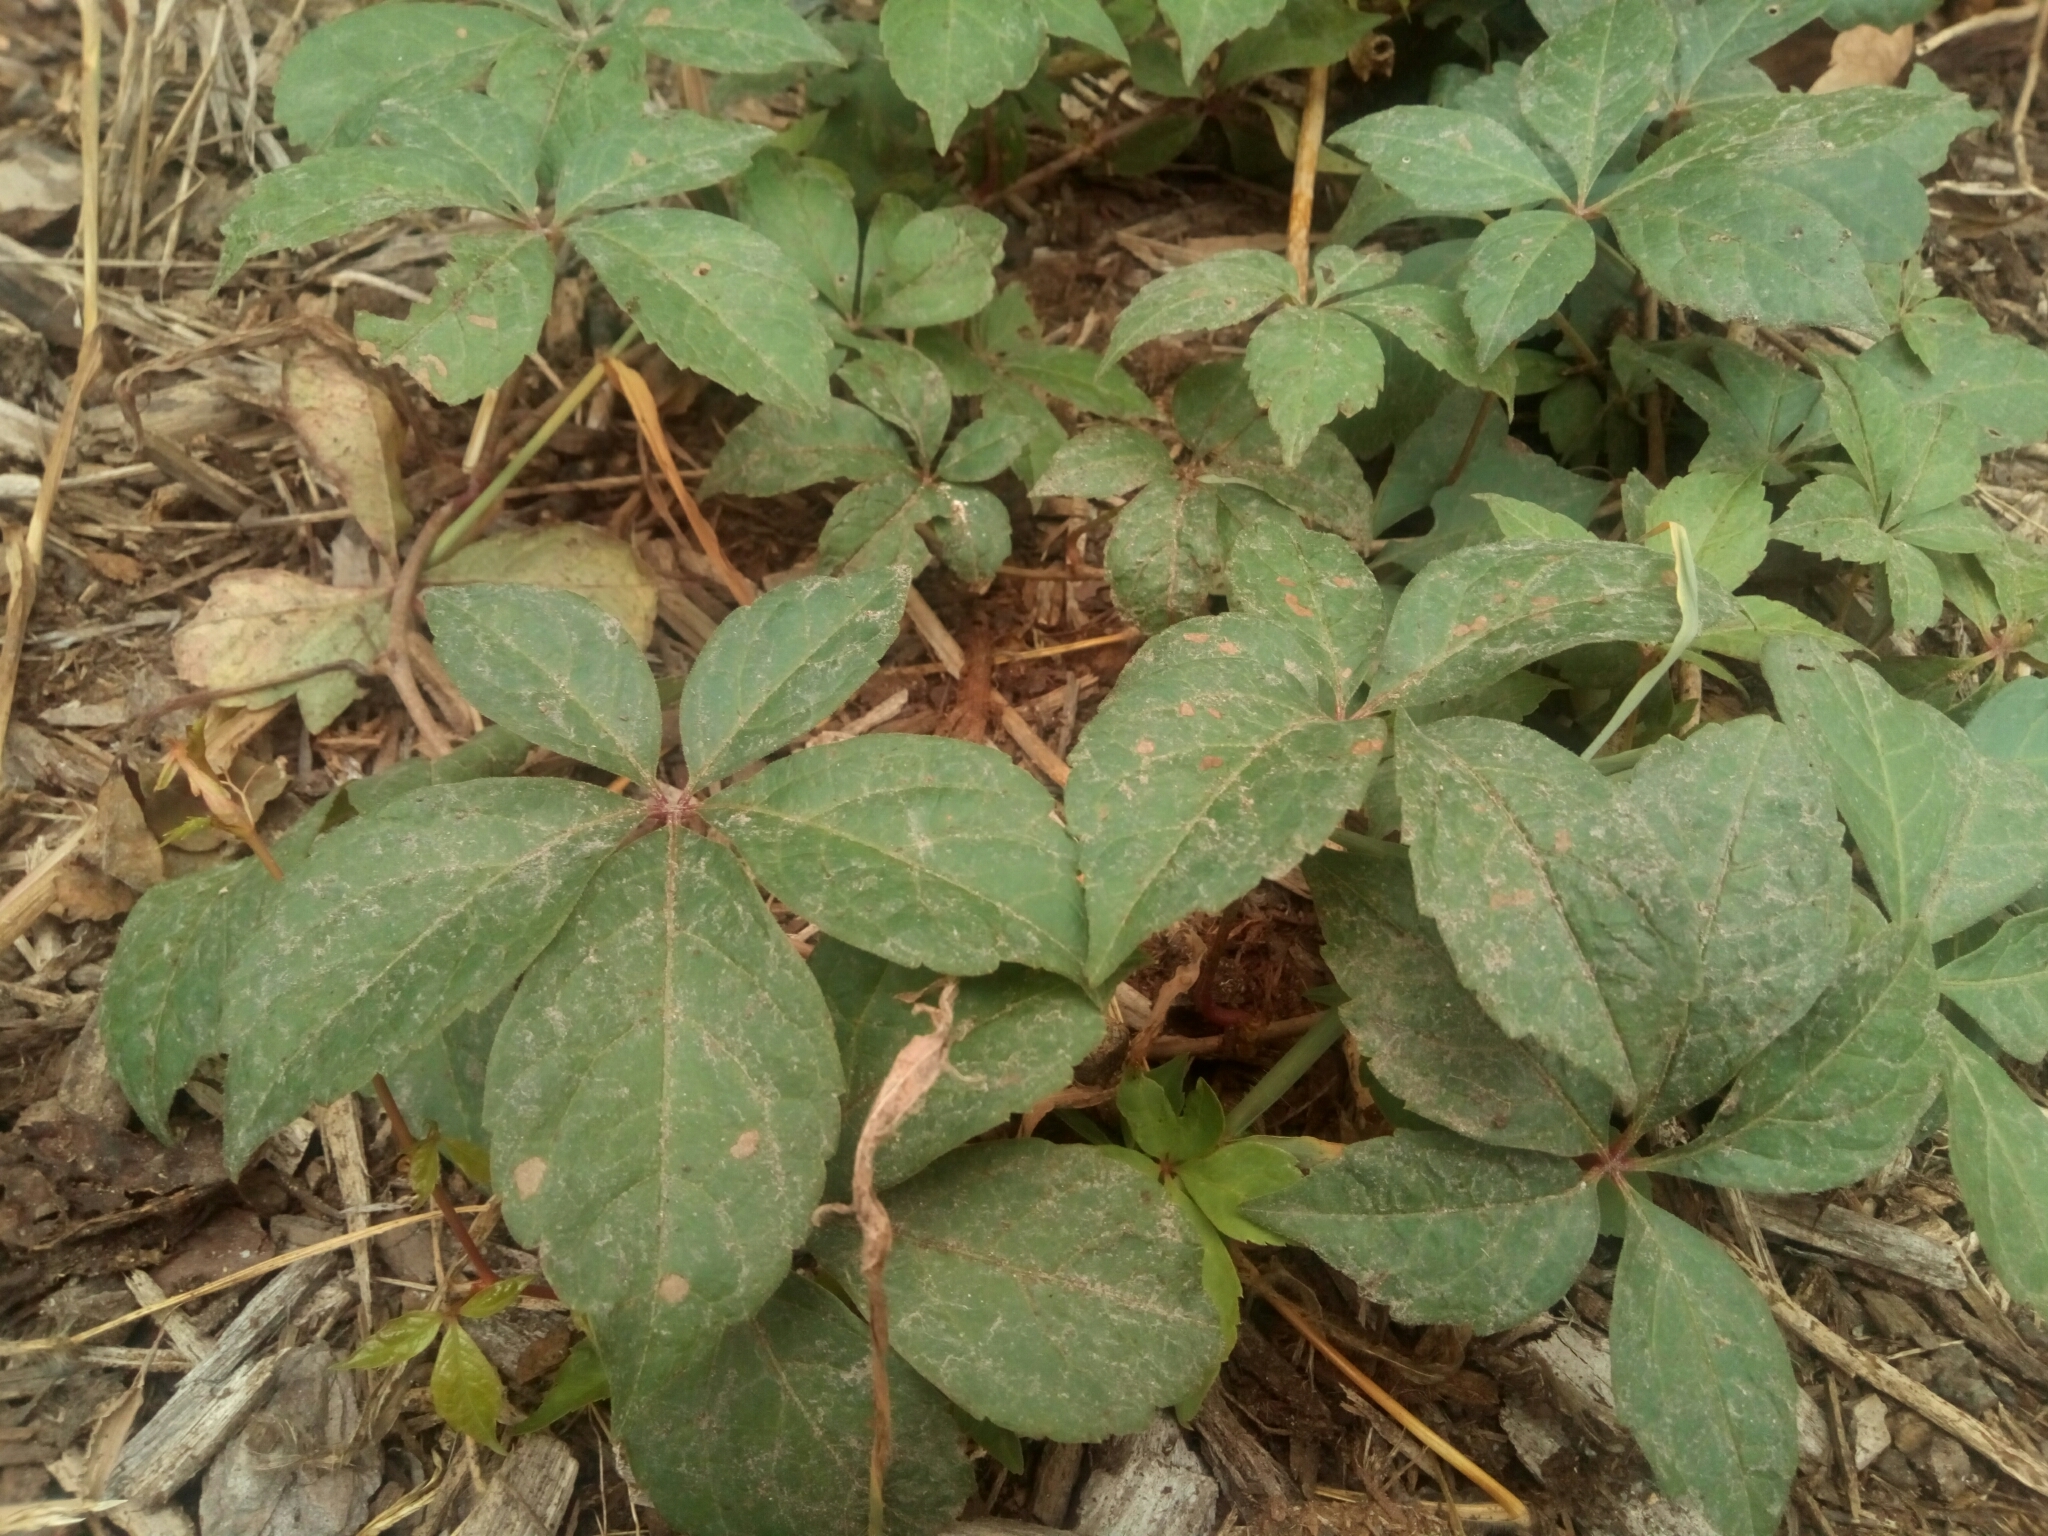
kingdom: Plantae
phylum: Tracheophyta
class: Magnoliopsida
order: Vitales
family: Vitaceae
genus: Parthenocissus
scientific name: Parthenocissus quinquefolia
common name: Virginia-creeper
